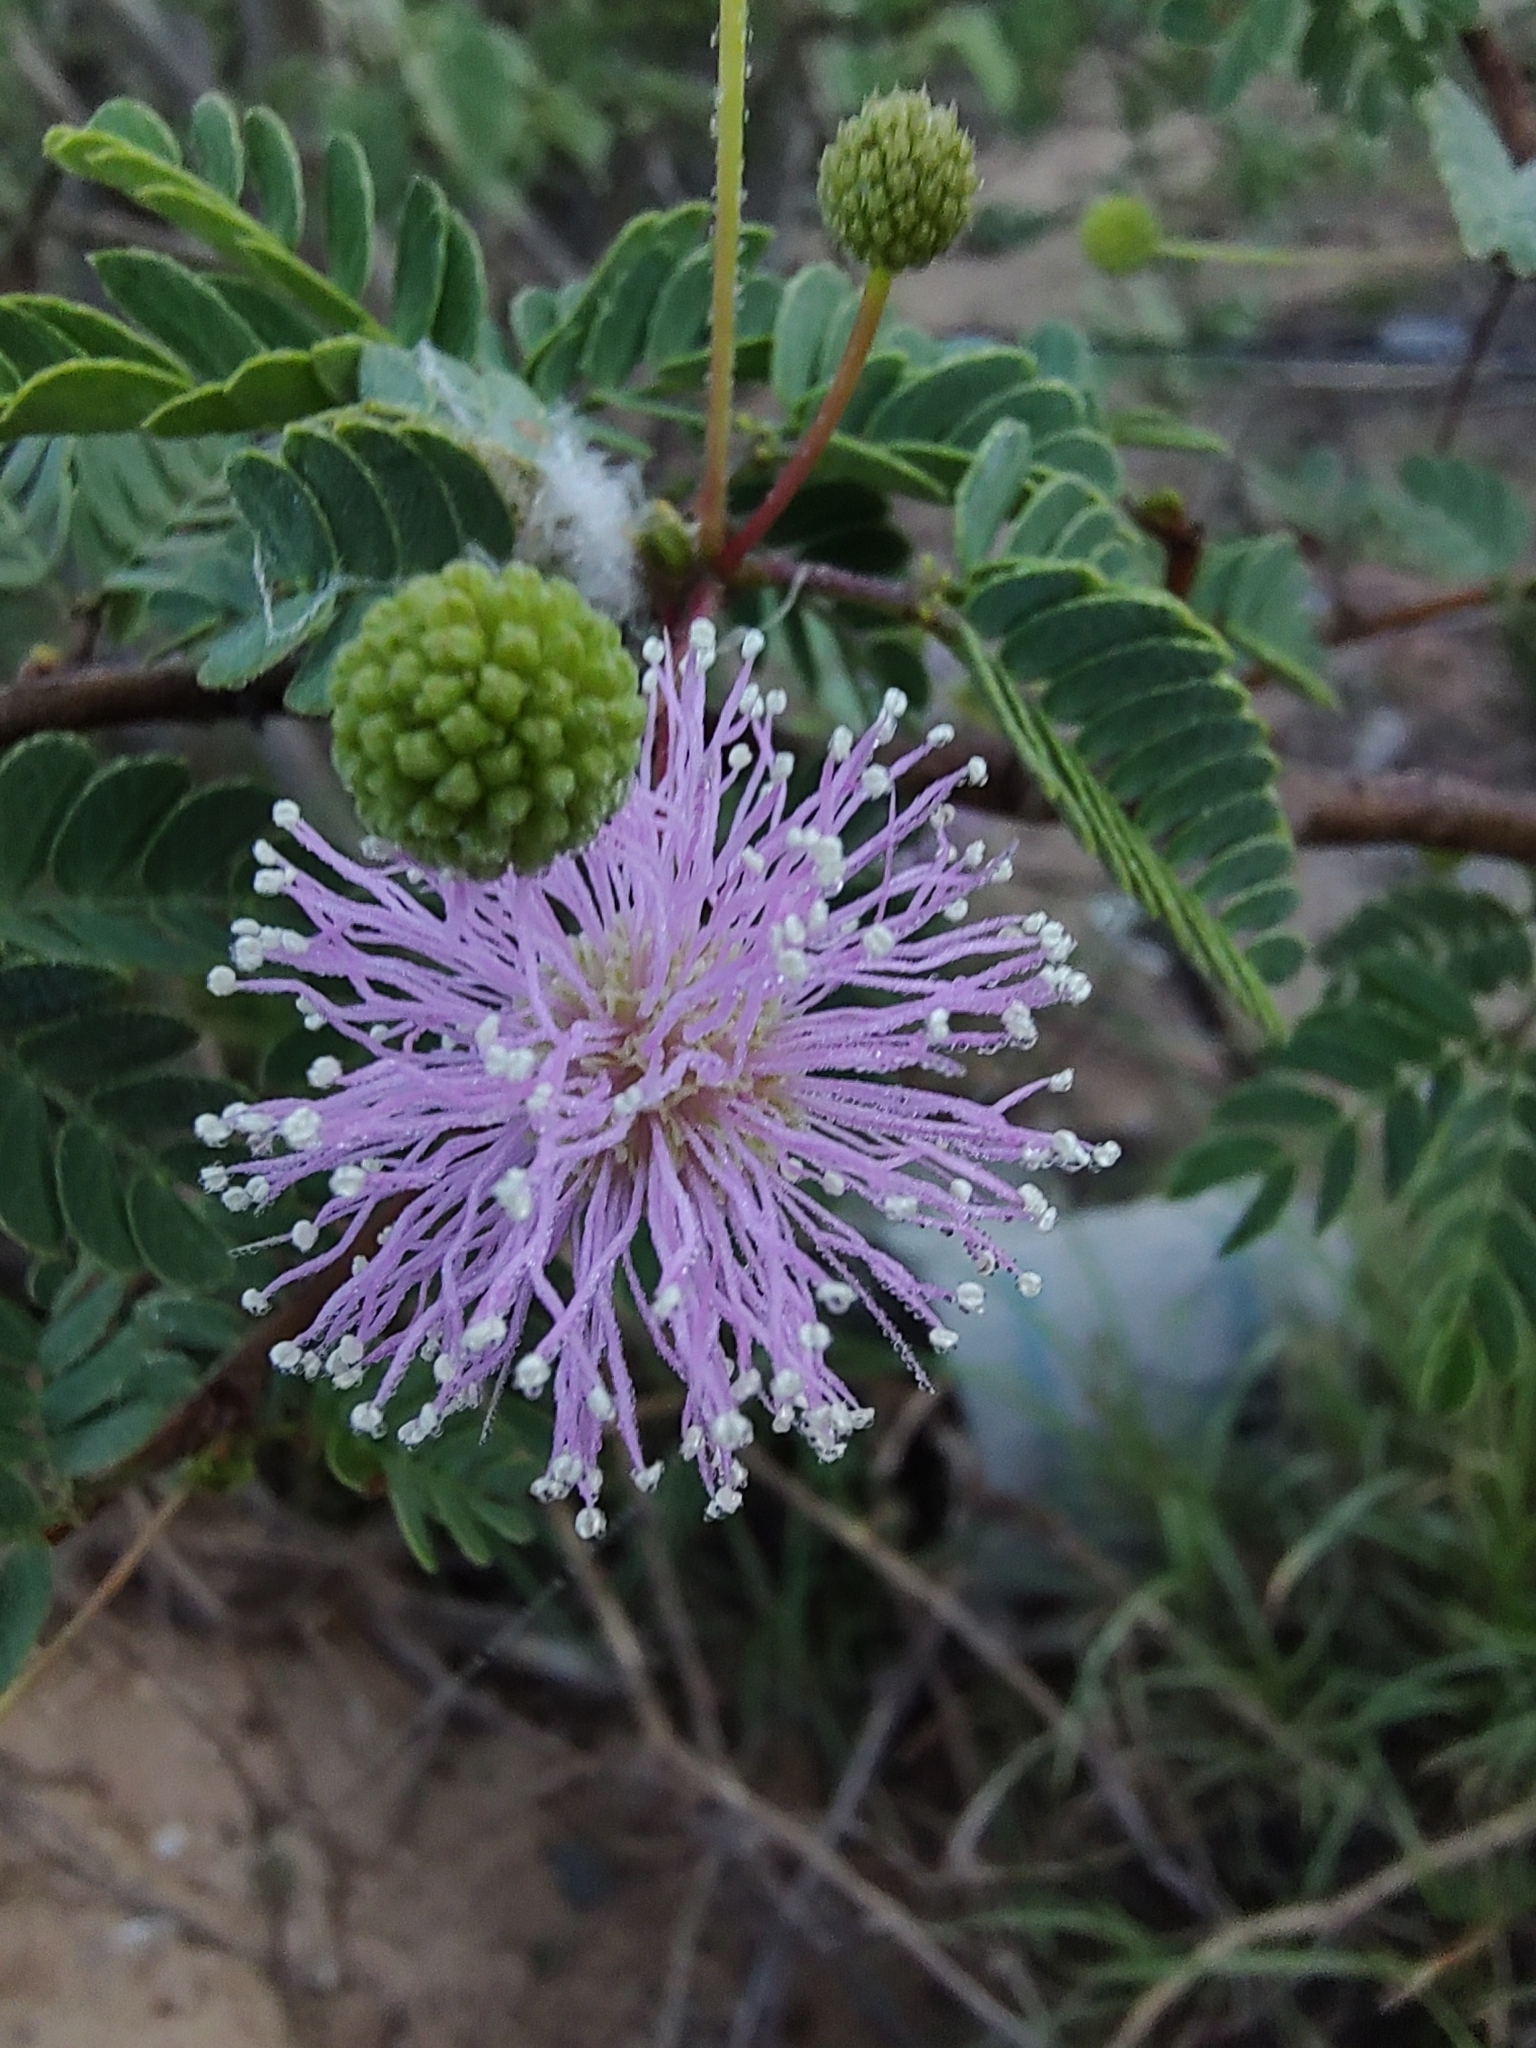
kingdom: Plantae
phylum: Tracheophyta
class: Magnoliopsida
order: Fabales
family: Fabaceae
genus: Mimosa
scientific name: Mimosa tricephala
